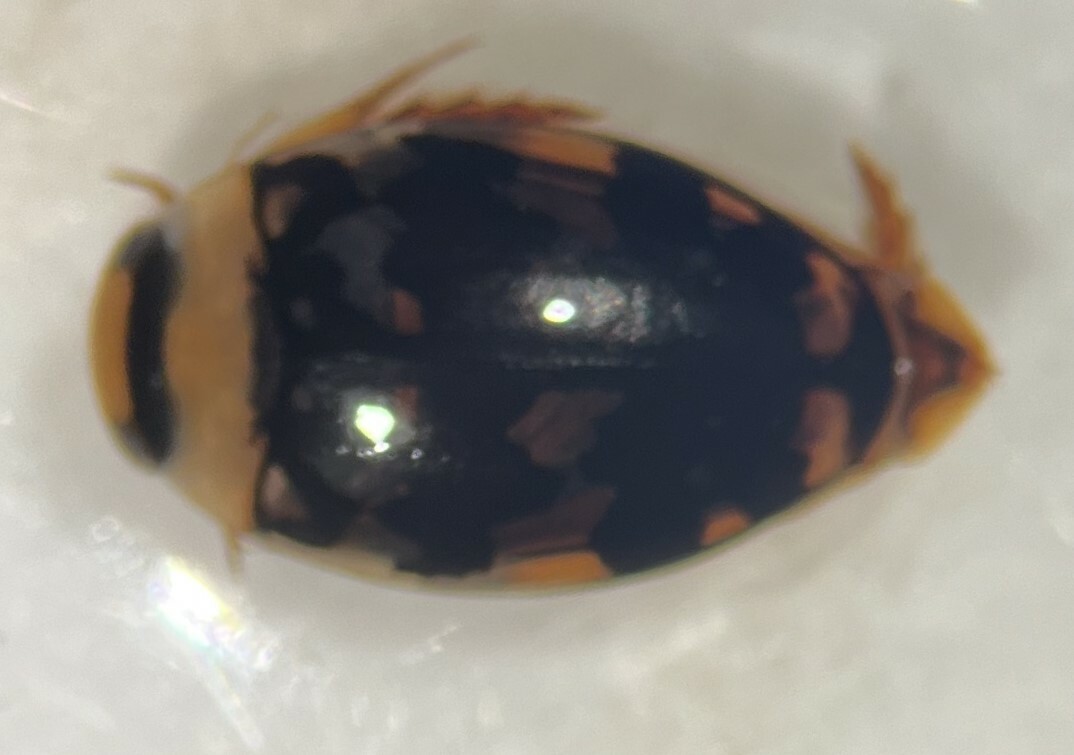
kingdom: Animalia
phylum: Arthropoda
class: Insecta
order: Coleoptera
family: Dytiscidae
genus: Laccophilus
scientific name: Laccophilus pictus
